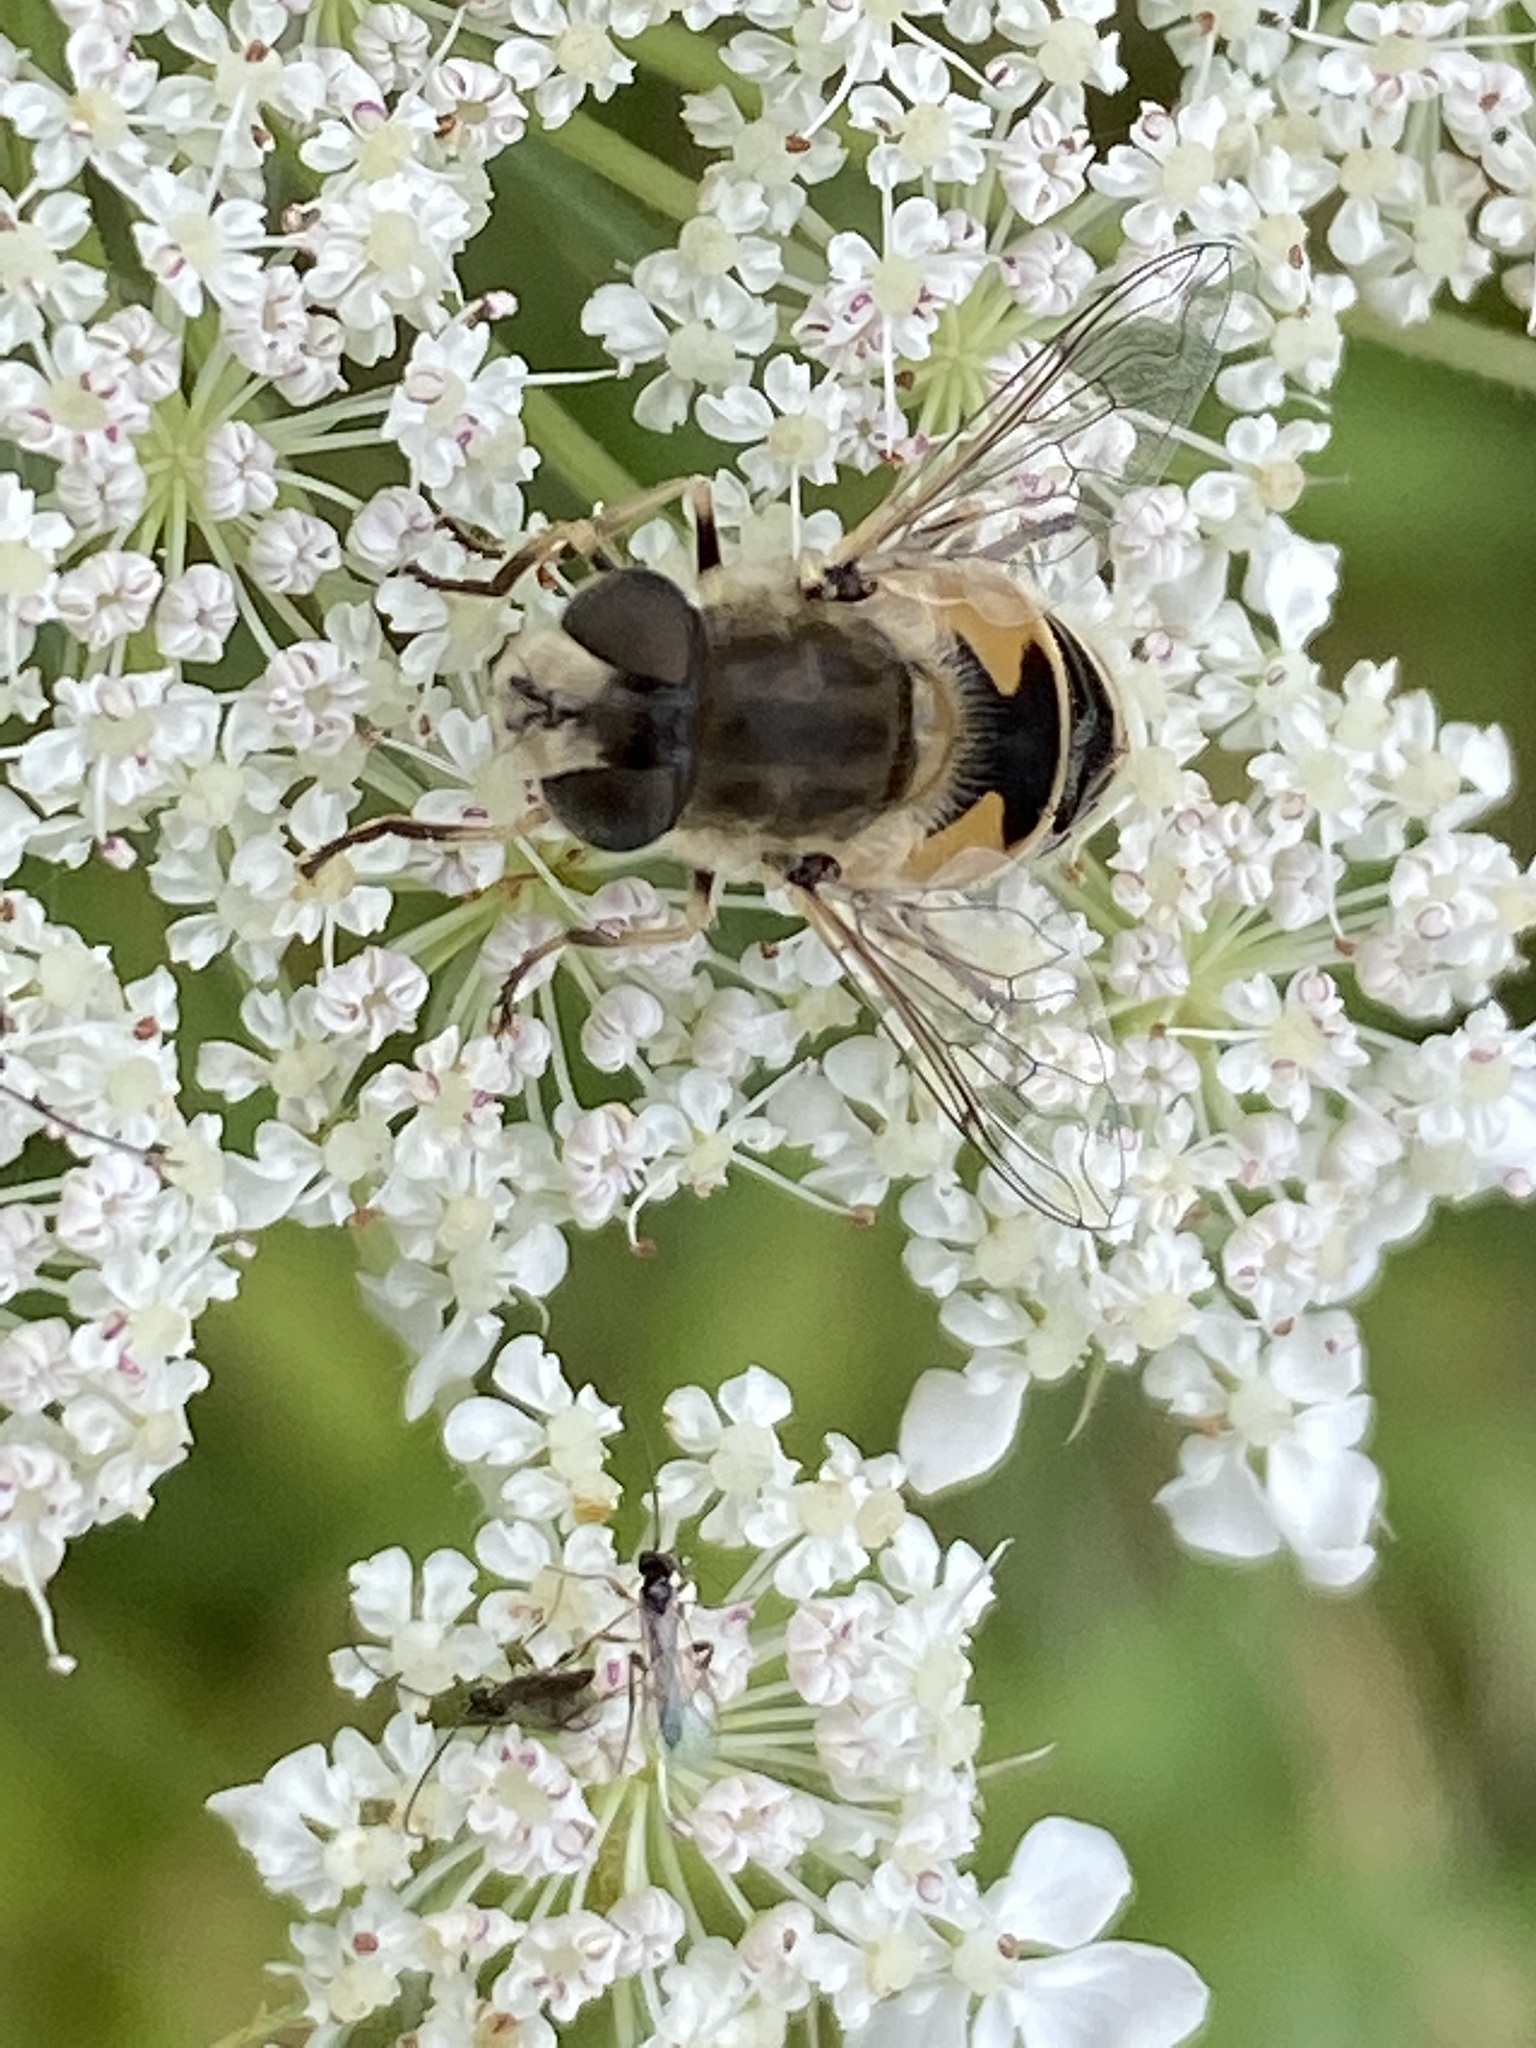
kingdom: Animalia
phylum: Arthropoda
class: Insecta
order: Diptera
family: Syrphidae
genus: Eristalis
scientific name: Eristalis arbustorum
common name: Hover fly
